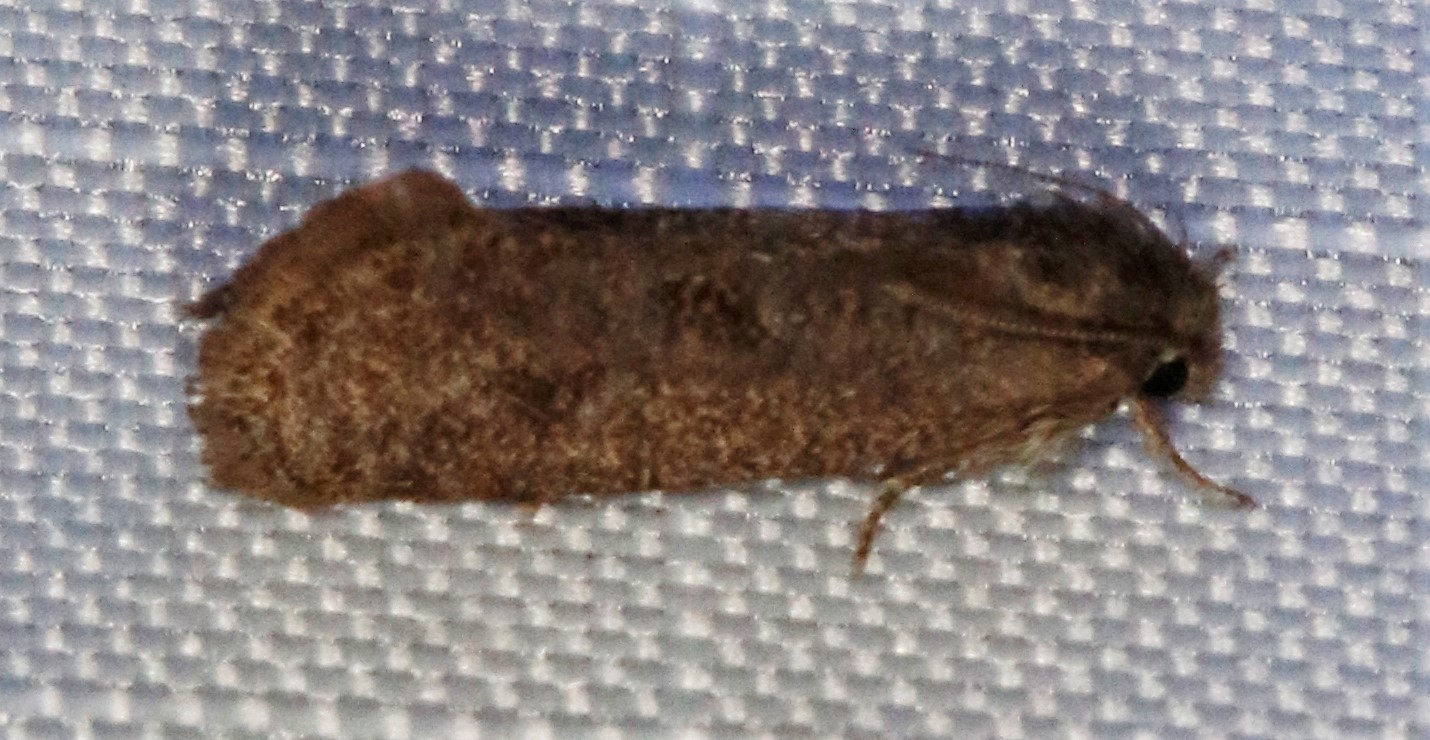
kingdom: Animalia
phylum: Arthropoda
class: Insecta
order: Lepidoptera
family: Tineidae
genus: Acrolophus
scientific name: Acrolophus heppneri
